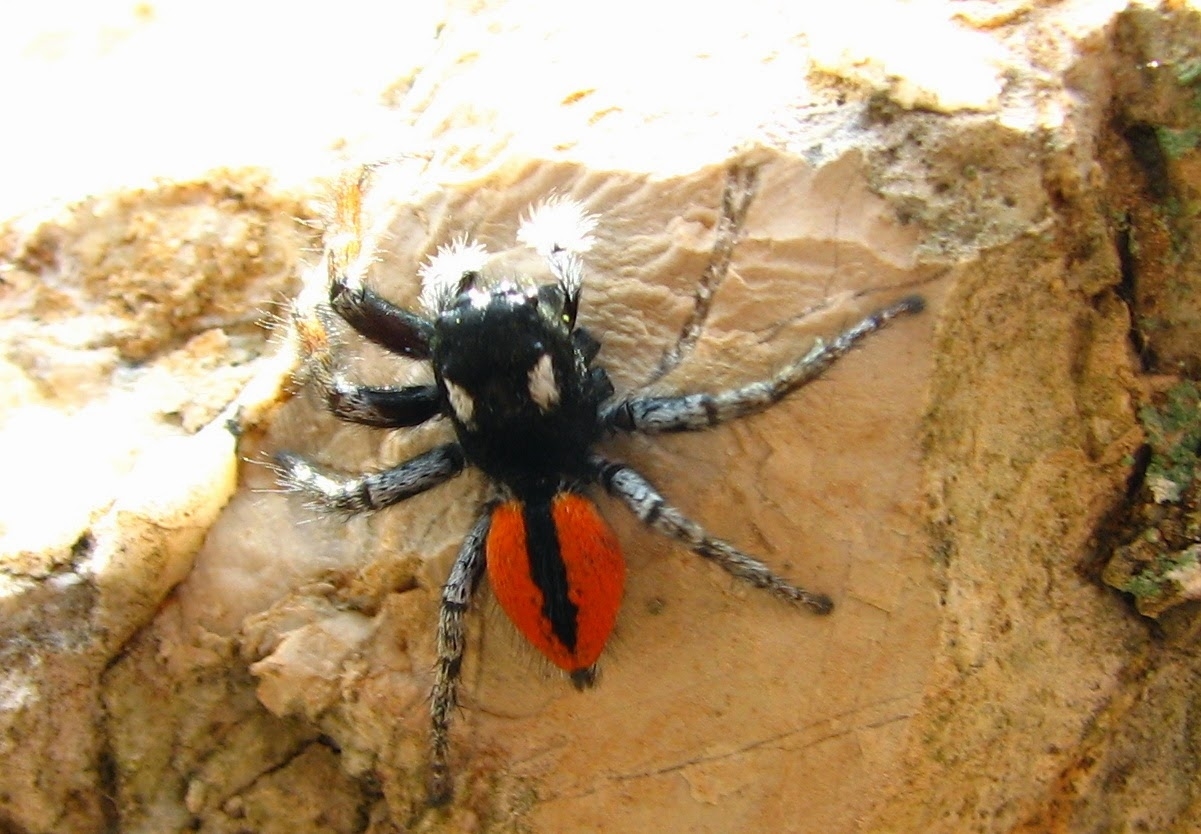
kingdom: Animalia
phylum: Arthropoda
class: Arachnida
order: Araneae
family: Salticidae
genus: Philaeus
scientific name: Philaeus chrysops
